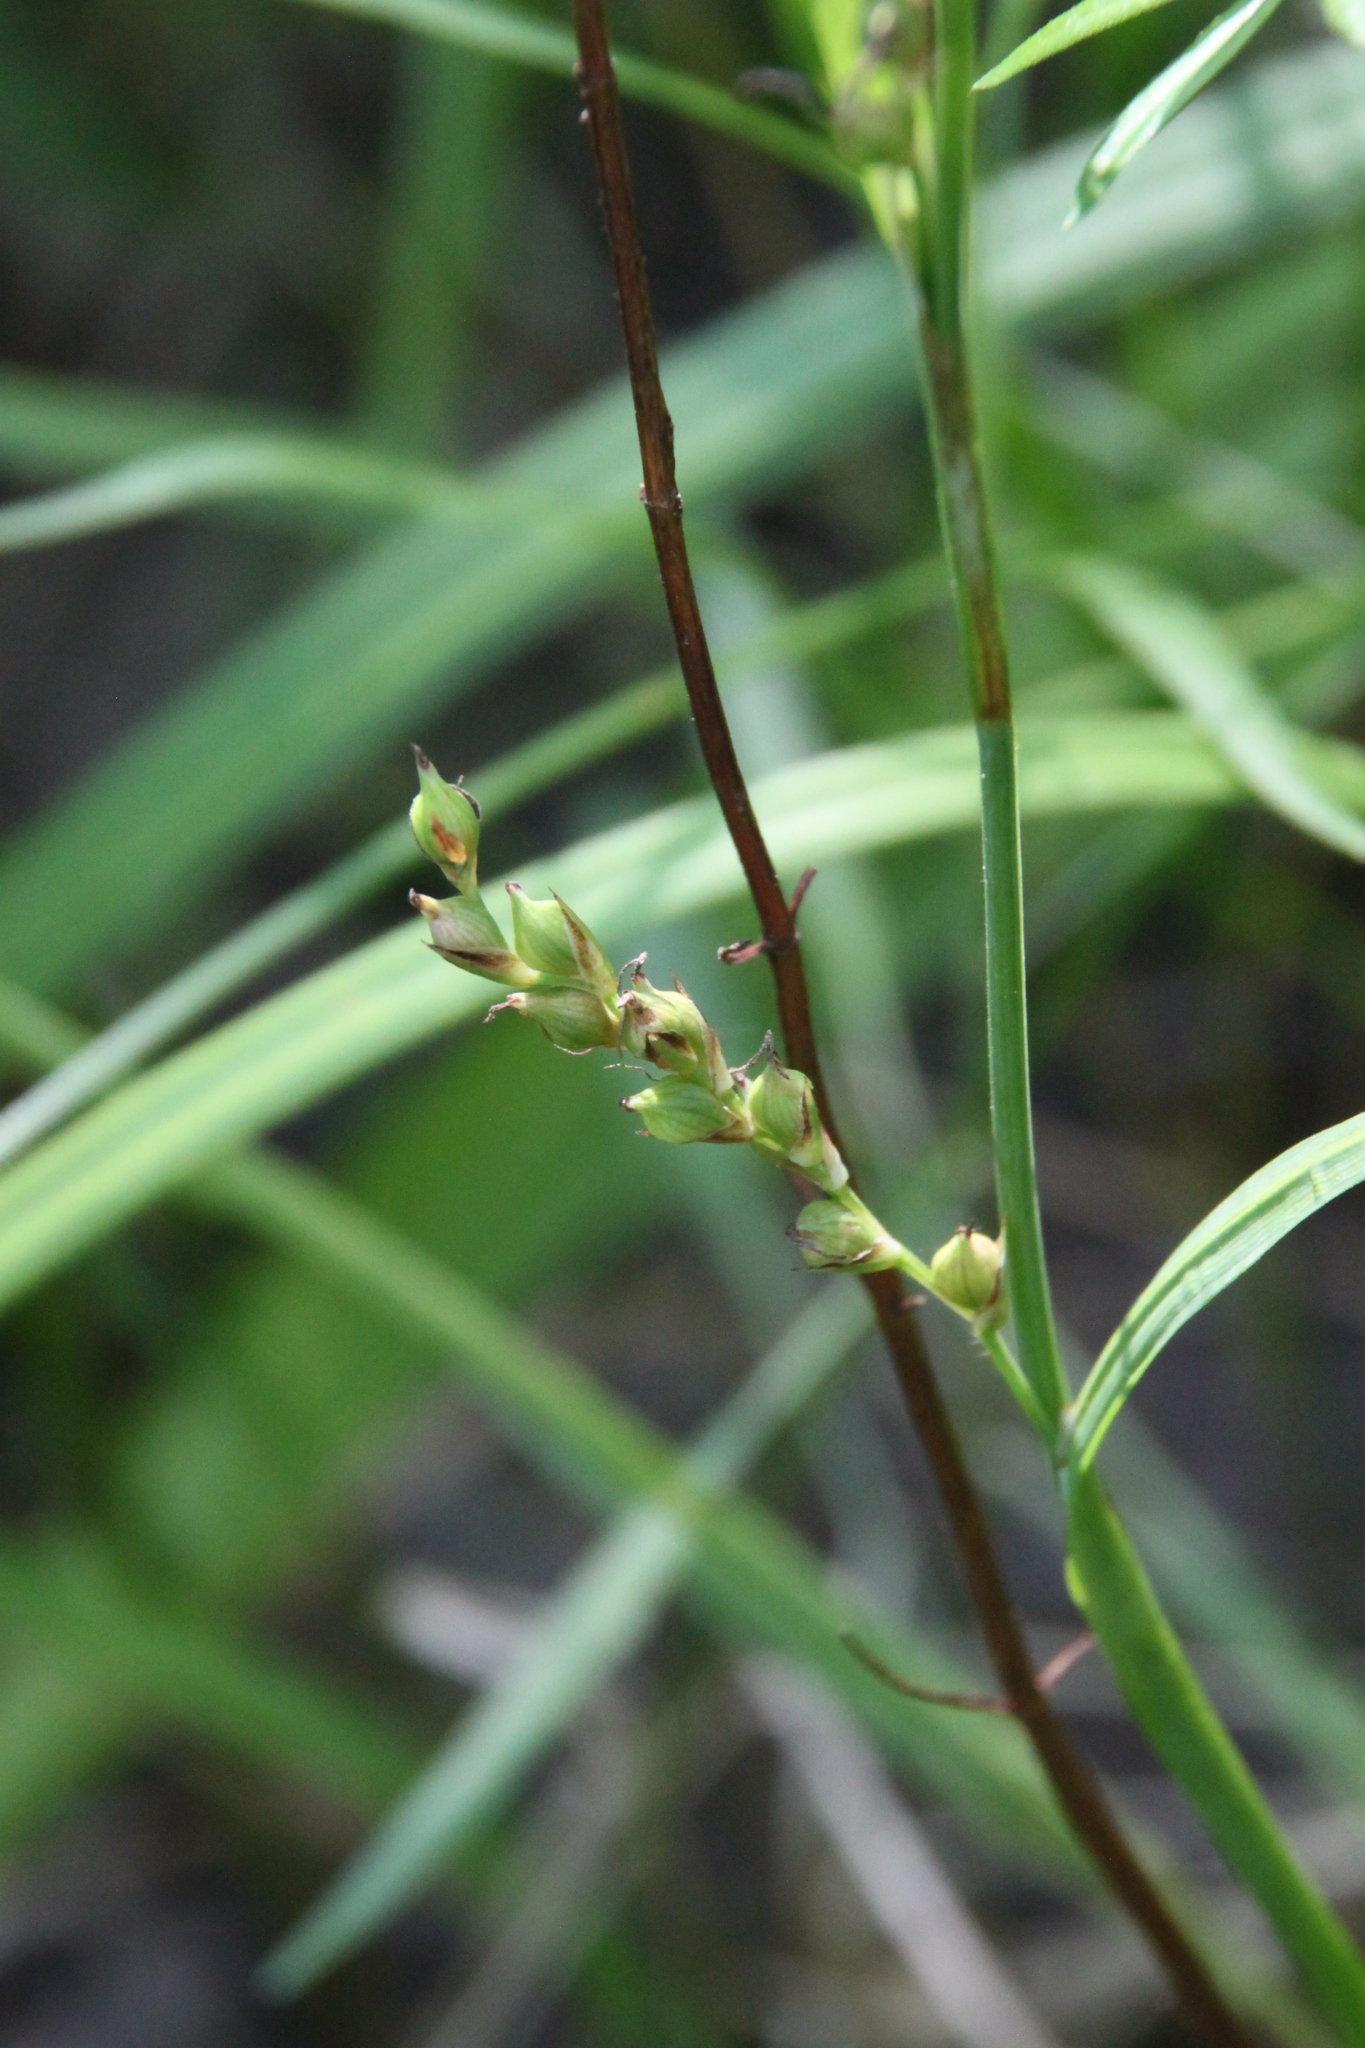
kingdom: Plantae
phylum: Tracheophyta
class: Liliopsida
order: Poales
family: Cyperaceae
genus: Carex
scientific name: Carex pilosa
